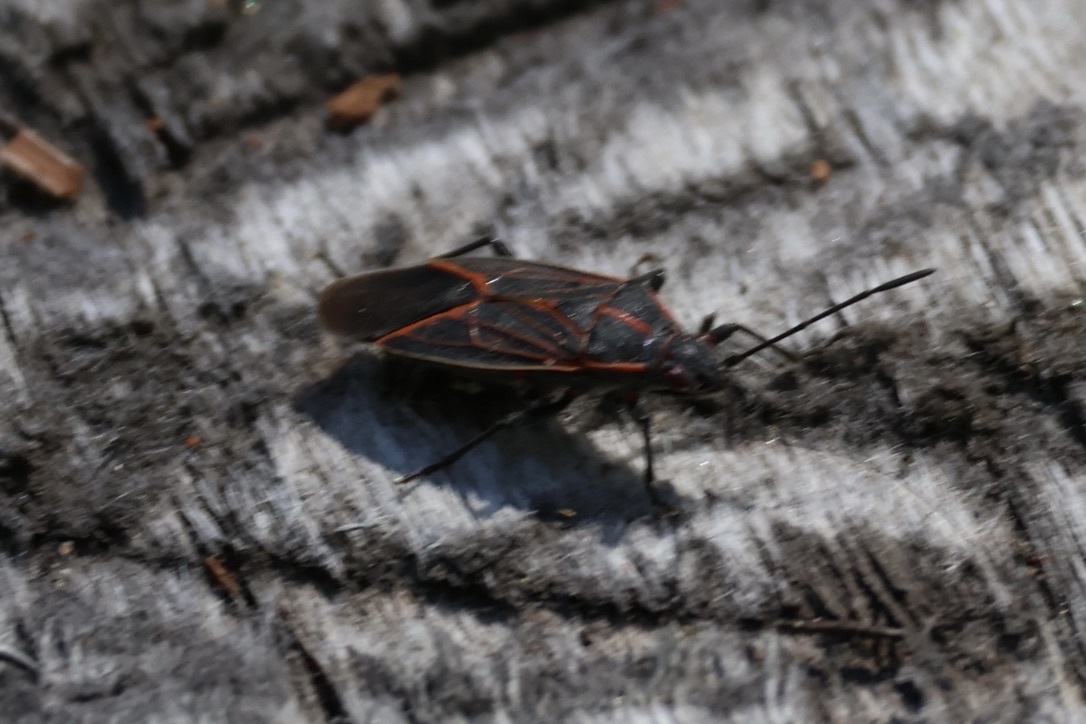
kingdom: Animalia
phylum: Arthropoda
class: Insecta
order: Hemiptera
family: Rhopalidae
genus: Boisea
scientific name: Boisea rubrolineata
